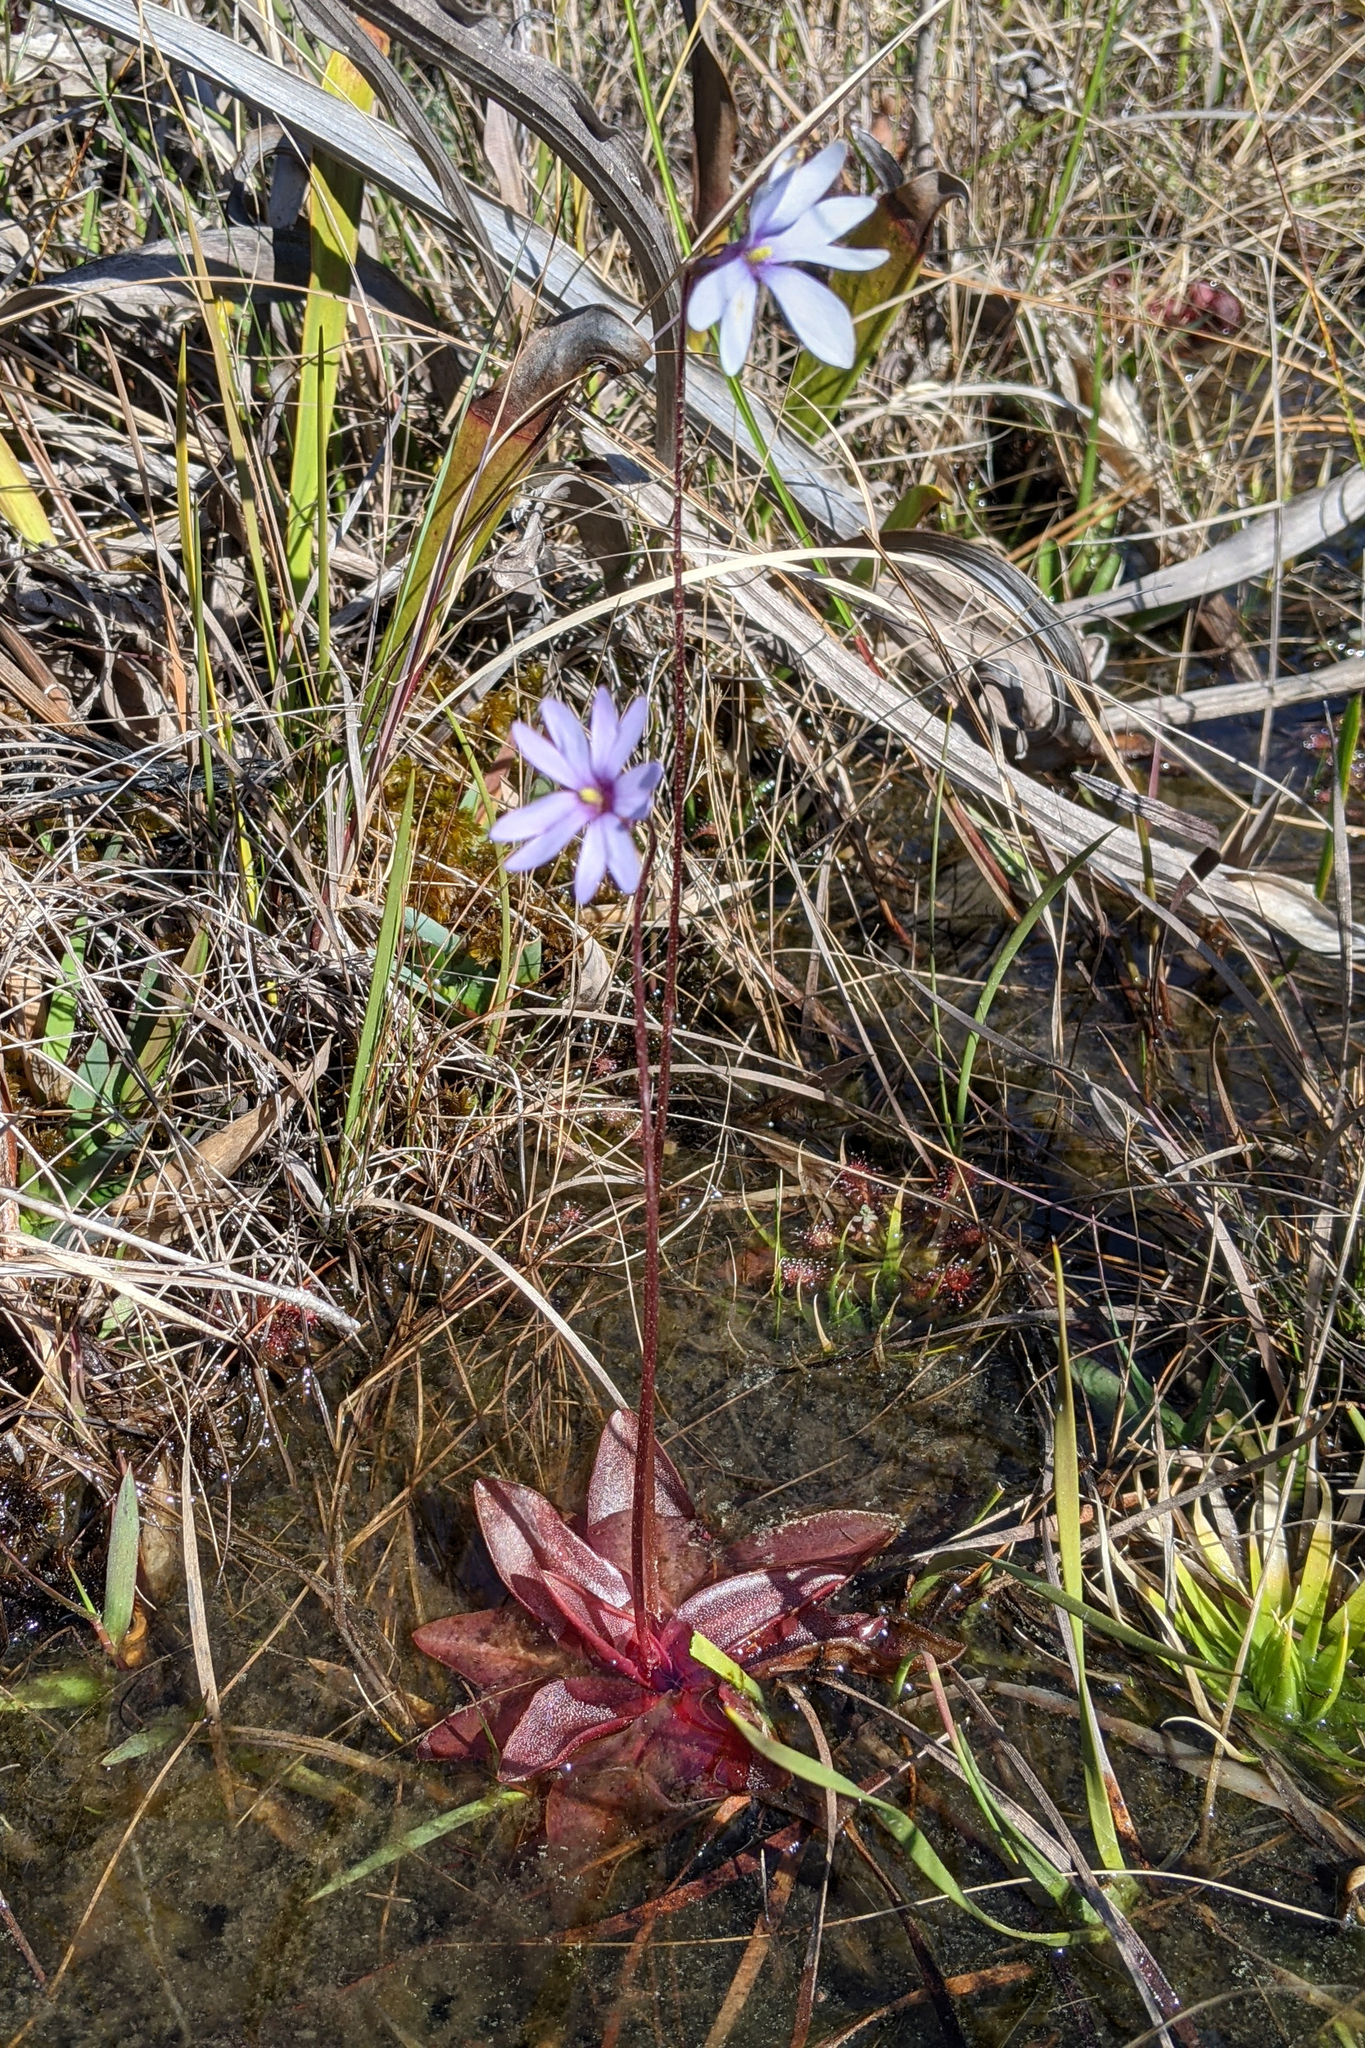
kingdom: Plantae
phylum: Tracheophyta
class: Magnoliopsida
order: Lamiales
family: Lentibulariaceae
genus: Pinguicula
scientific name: Pinguicula planifolia
